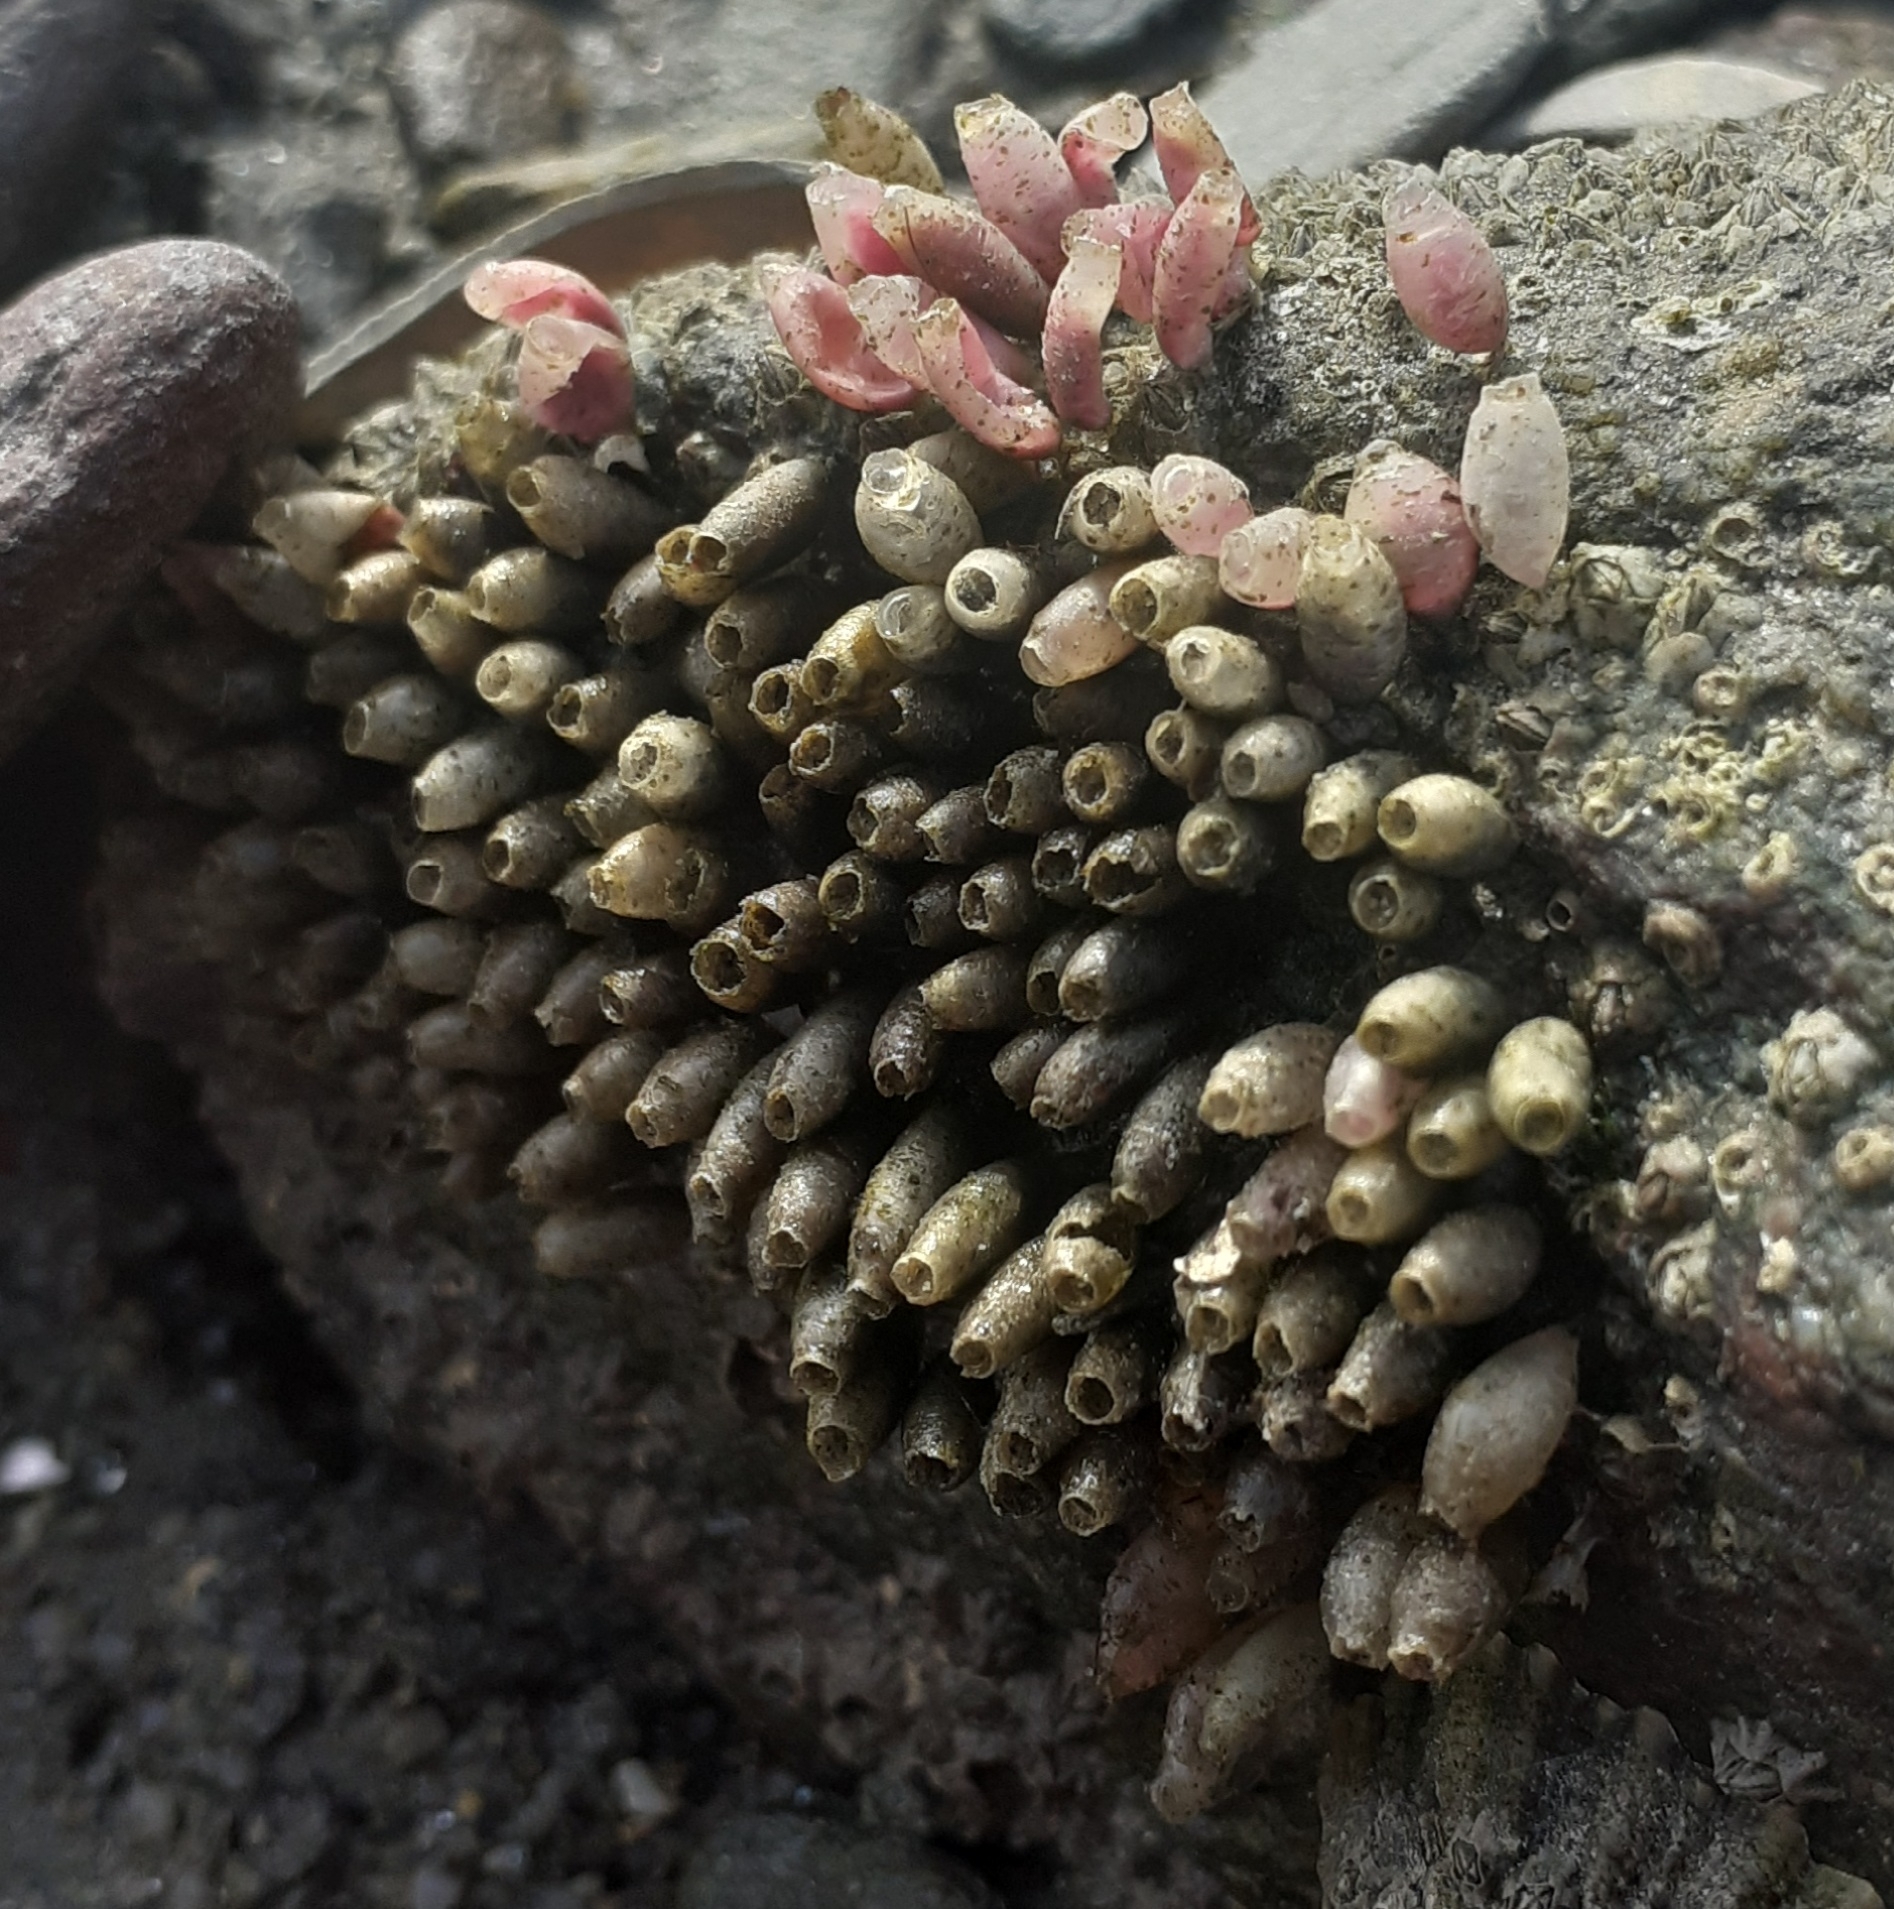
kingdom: Animalia
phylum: Mollusca
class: Gastropoda
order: Neogastropoda
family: Muricidae
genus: Nucella
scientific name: Nucella lapillus
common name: Dog whelk
